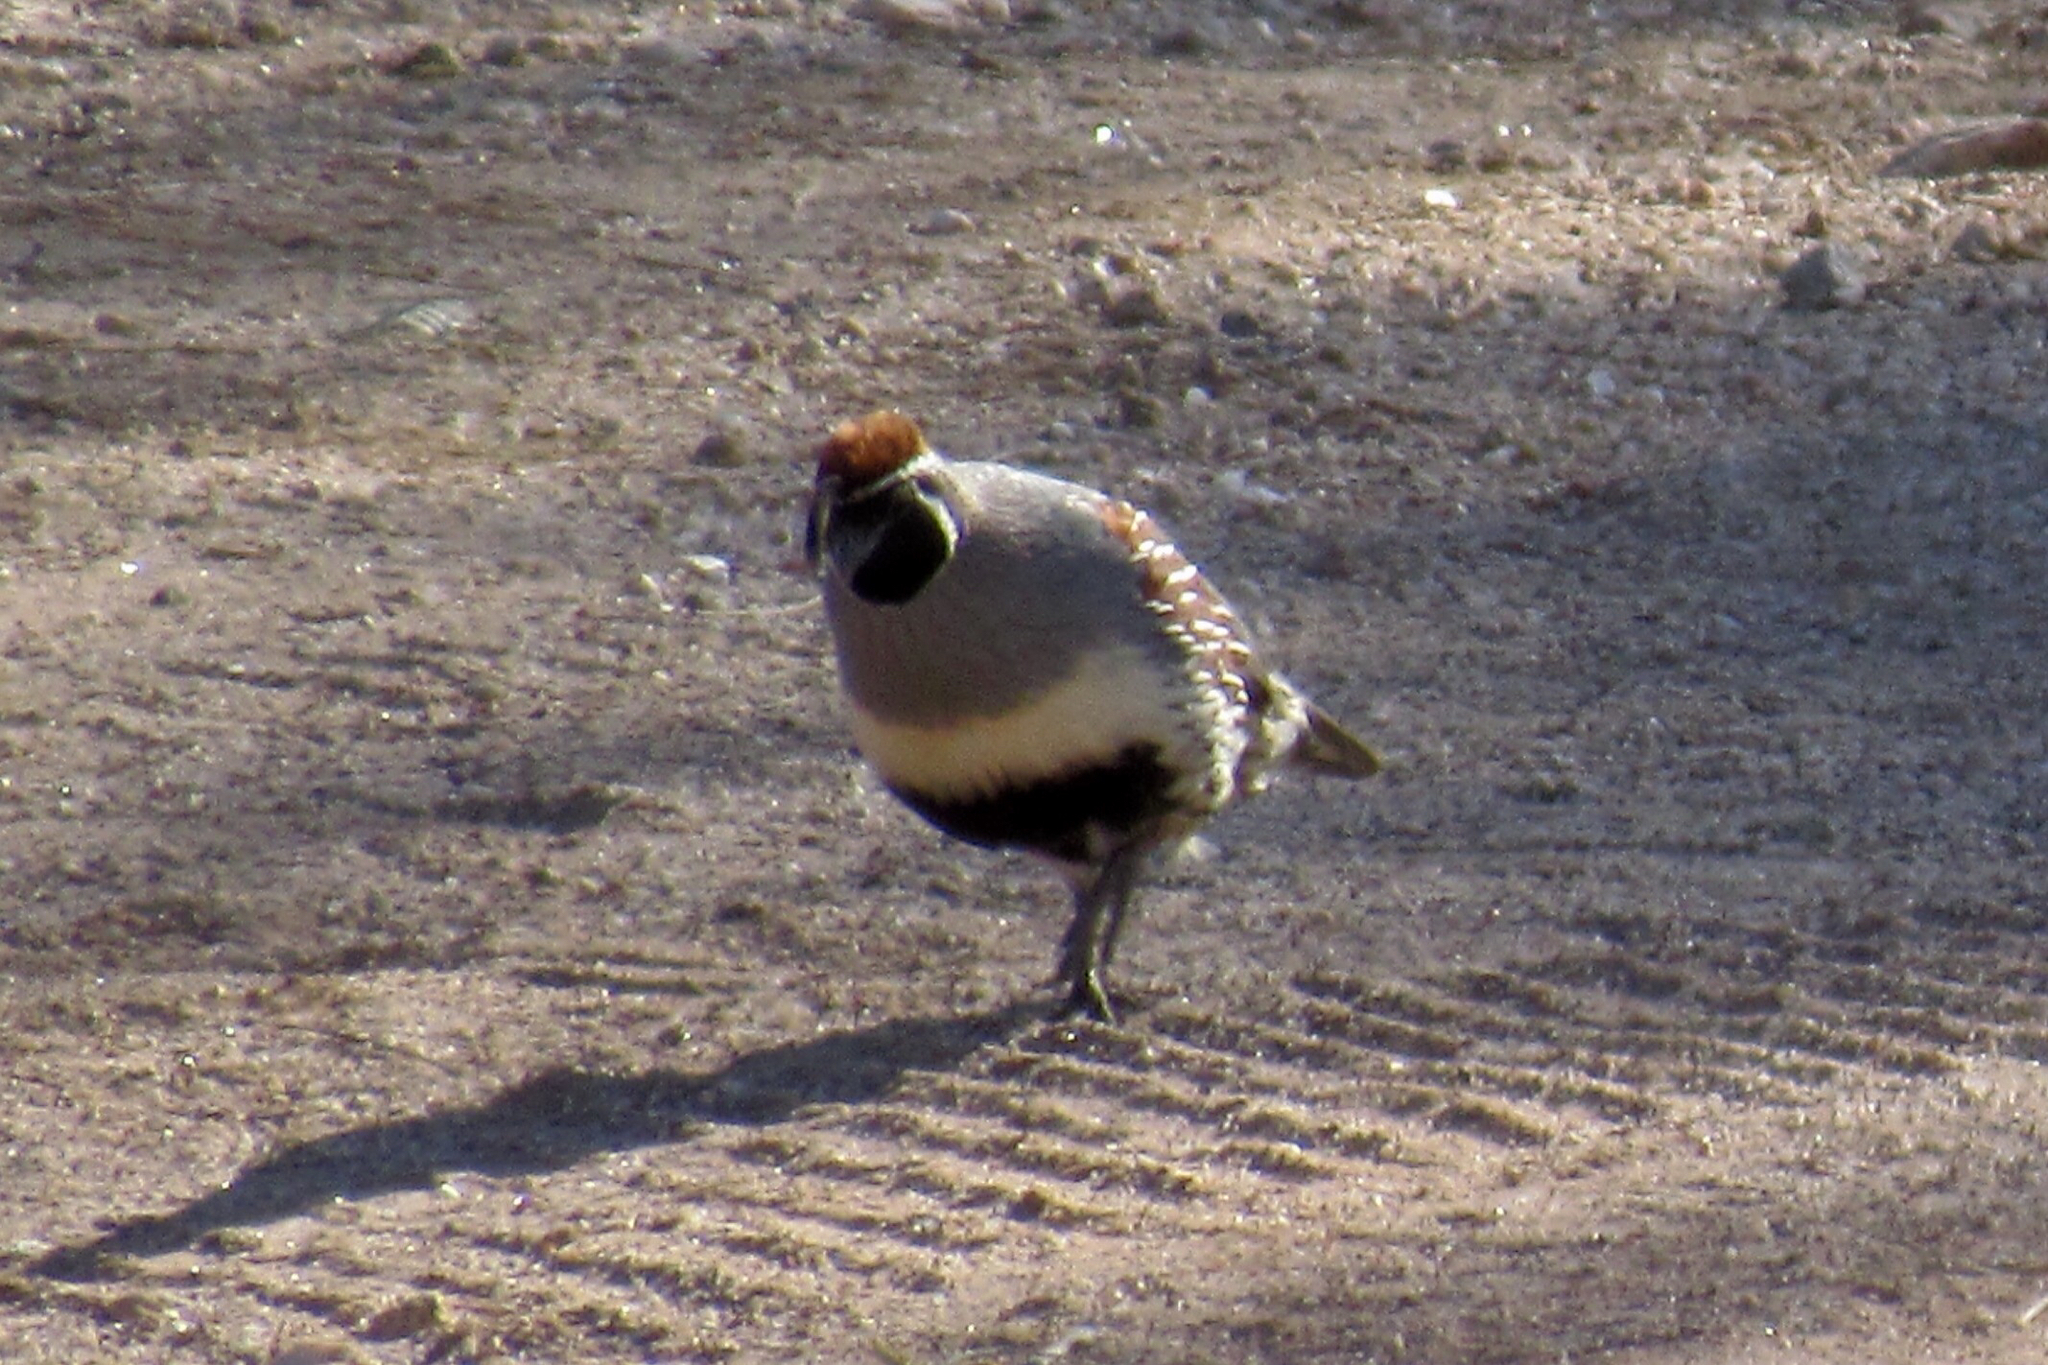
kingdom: Animalia
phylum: Chordata
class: Aves
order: Galliformes
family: Odontophoridae
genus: Callipepla
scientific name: Callipepla gambelii
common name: Gambel's quail
